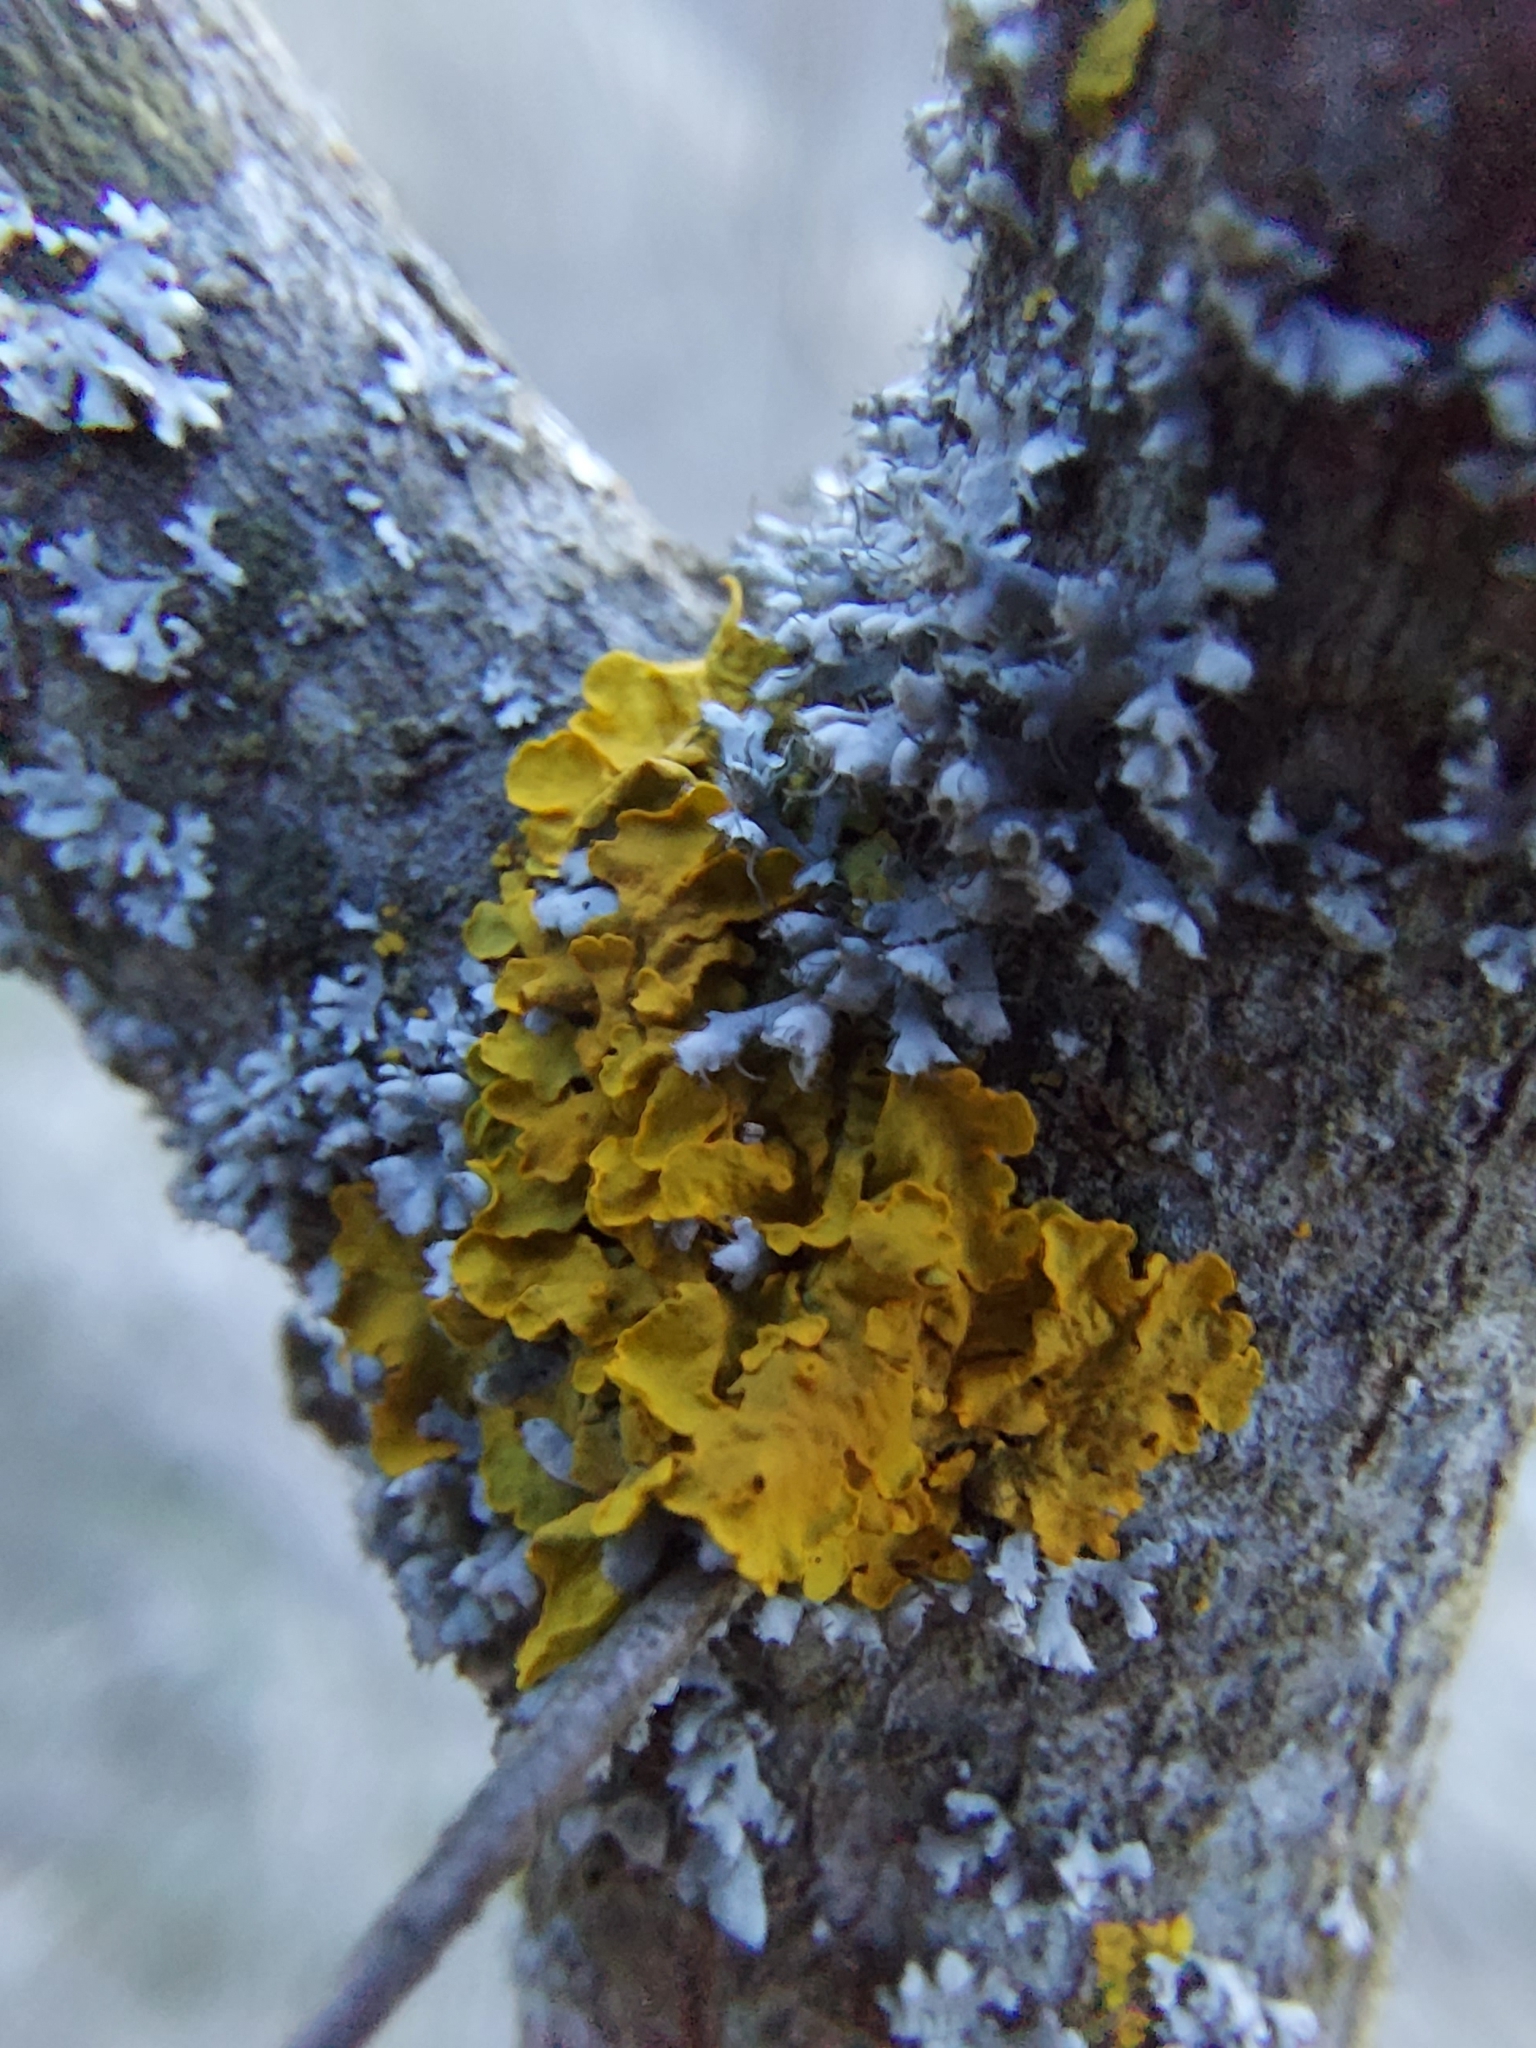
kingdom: Fungi
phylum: Ascomycota
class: Lecanoromycetes
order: Teloschistales
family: Teloschistaceae
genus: Xanthoria
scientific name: Xanthoria parietina
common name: Common orange lichen
